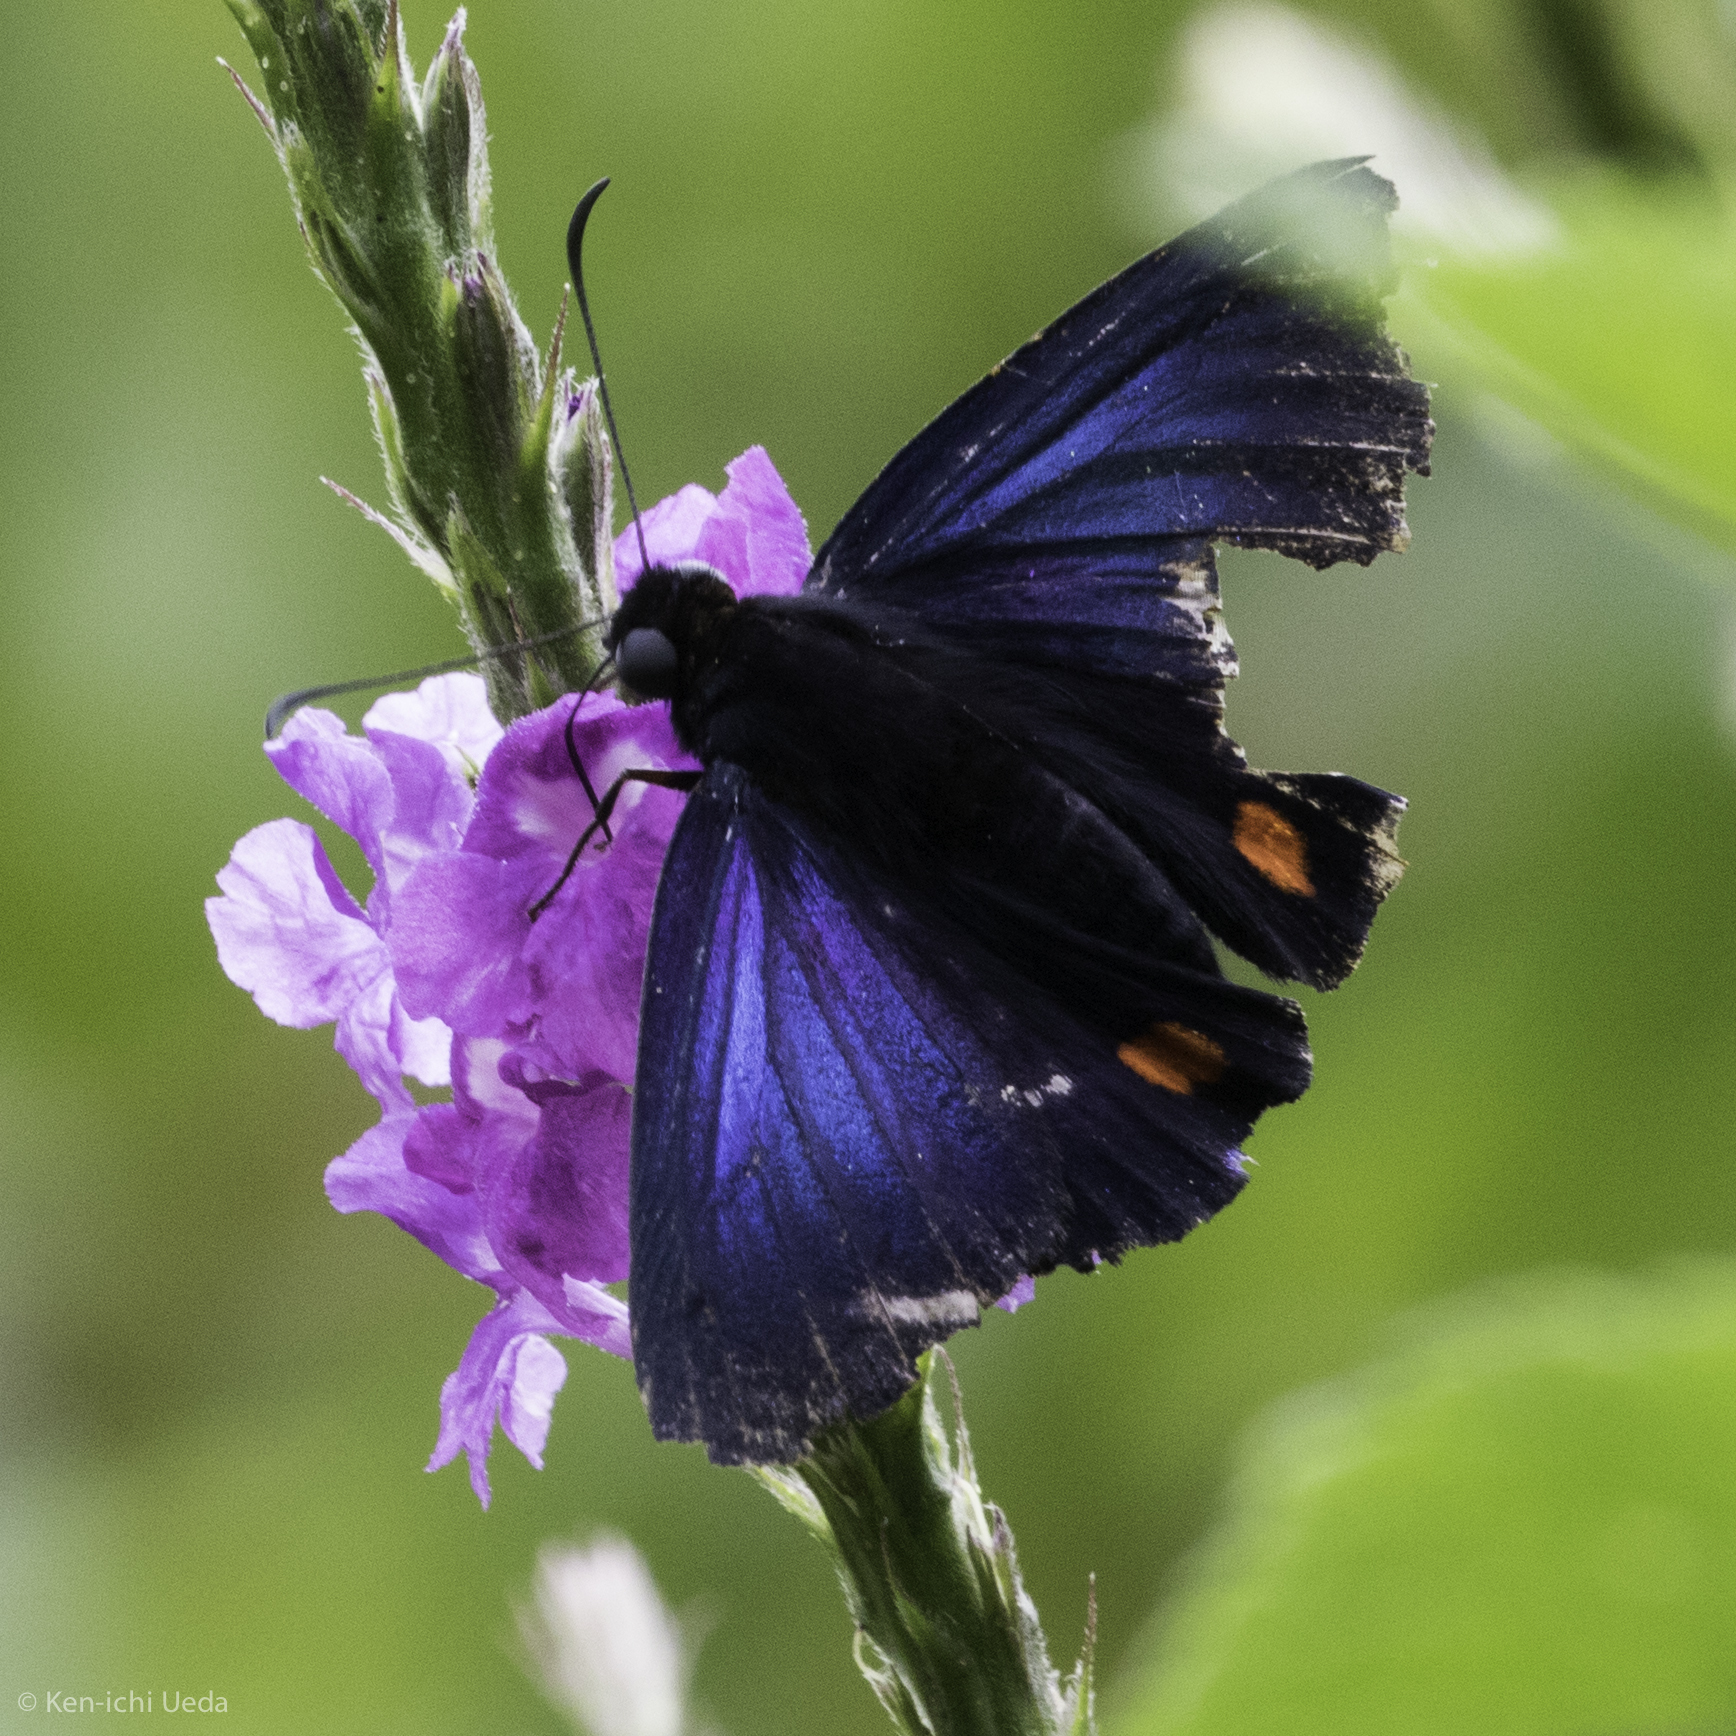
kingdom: Animalia
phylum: Arthropoda
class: Insecta
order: Lepidoptera
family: Hesperiidae
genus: Creonpyge
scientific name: Creonpyge creon
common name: Creon skipper
